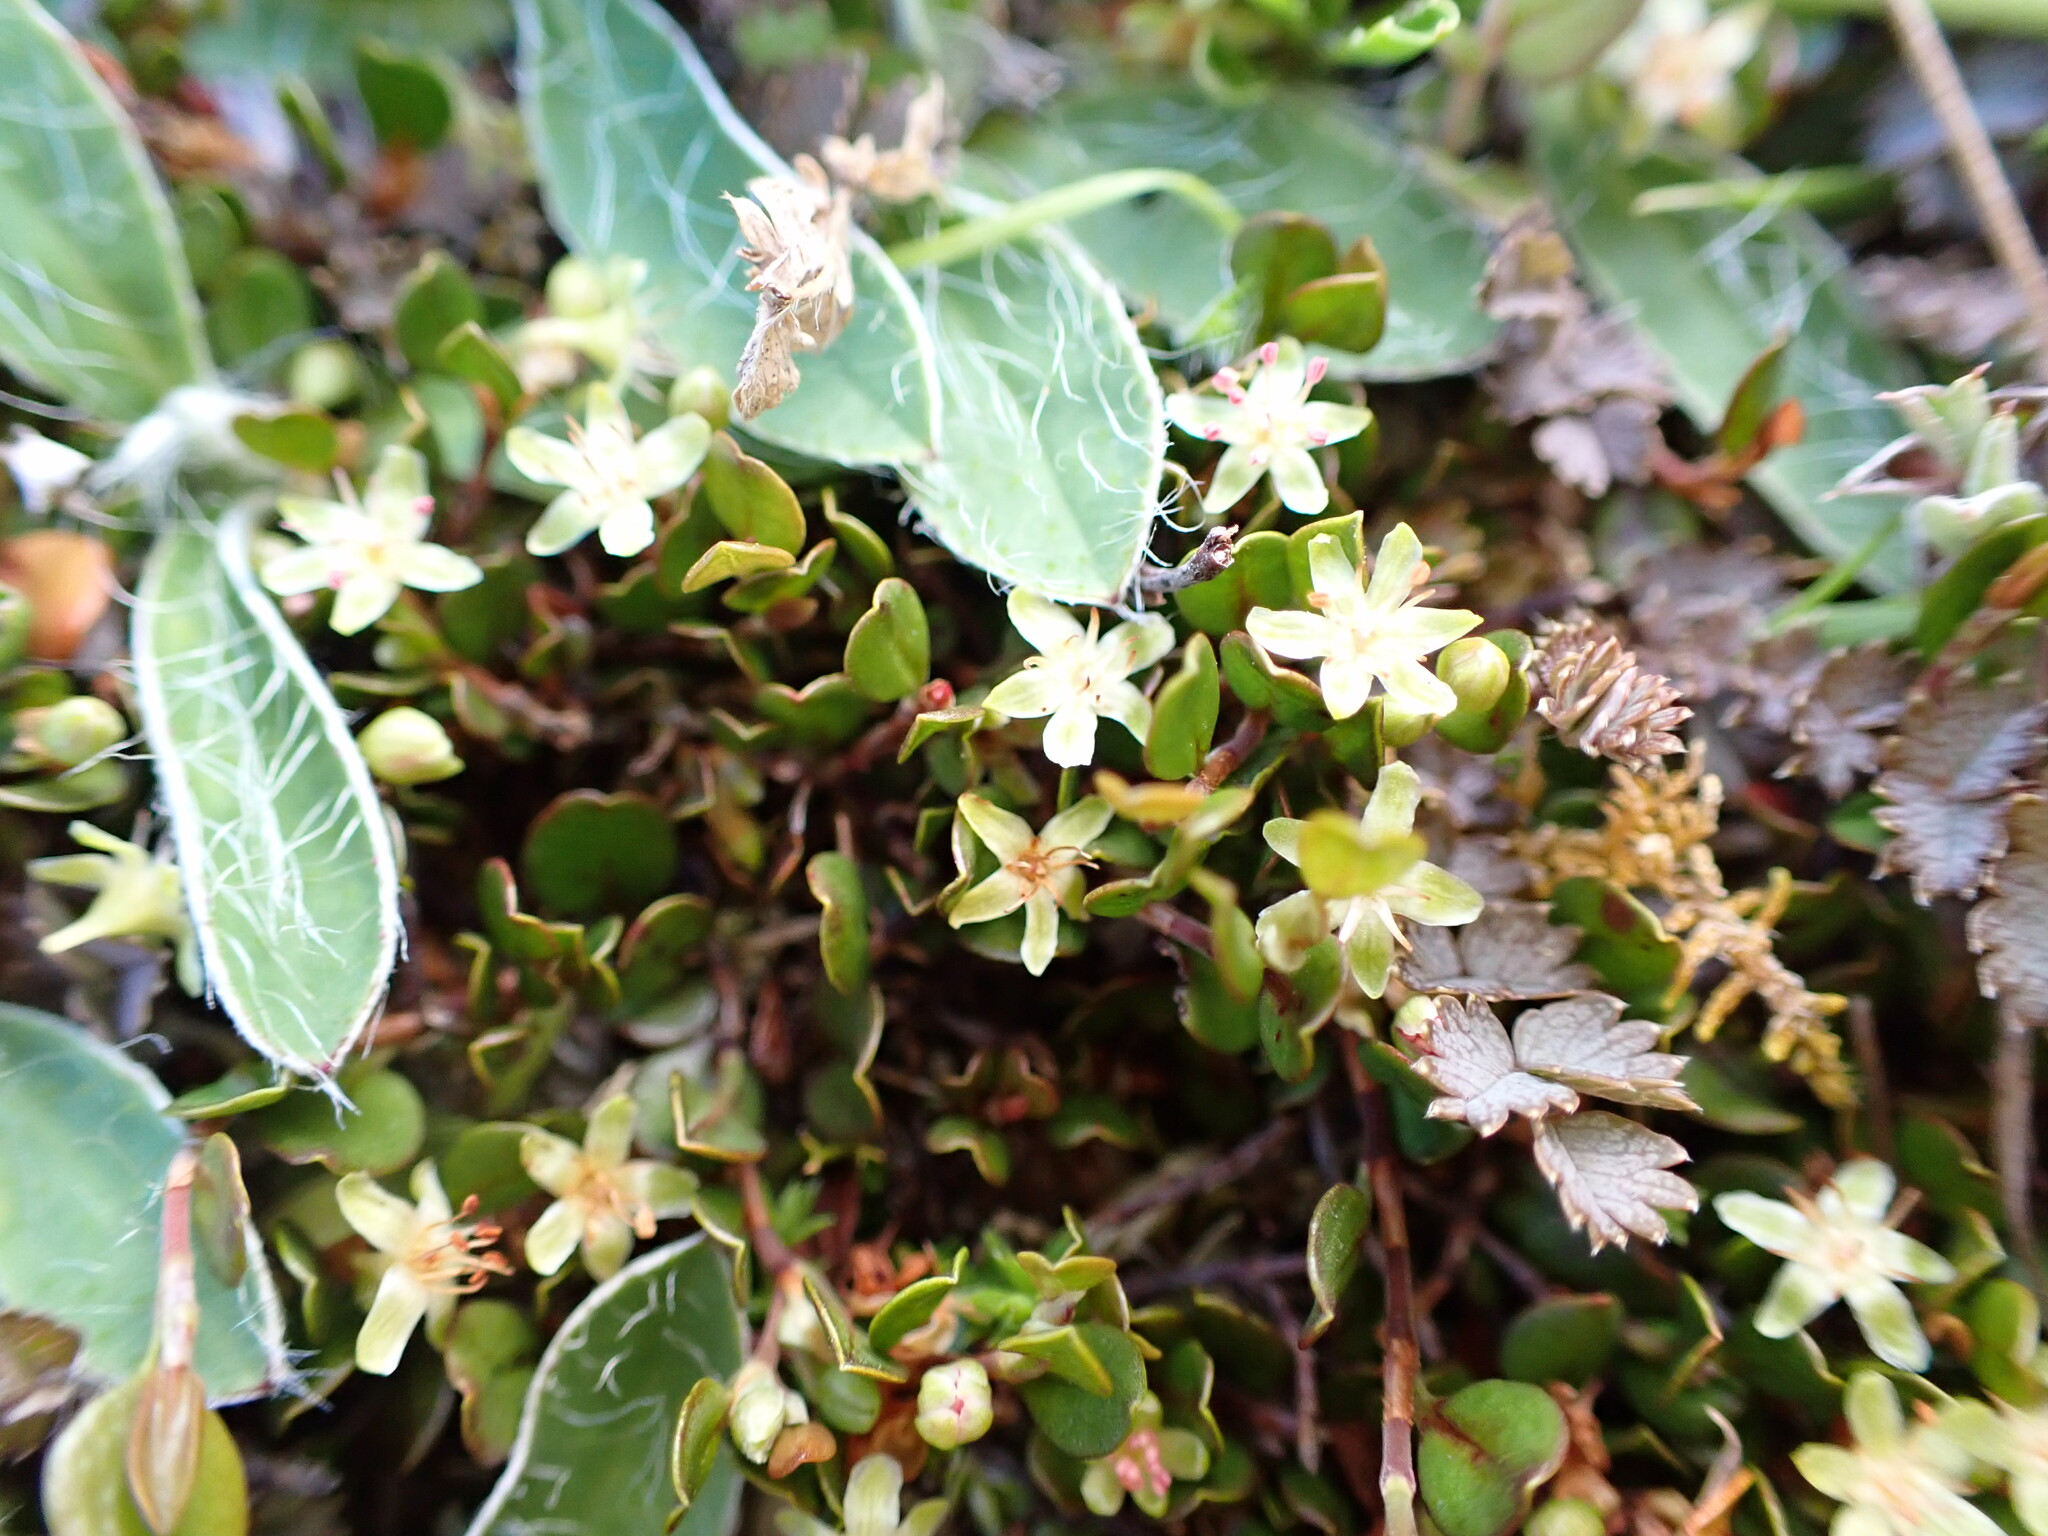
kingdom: Plantae
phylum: Tracheophyta
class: Magnoliopsida
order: Caryophyllales
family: Polygonaceae
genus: Muehlenbeckia
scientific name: Muehlenbeckia axillaris
